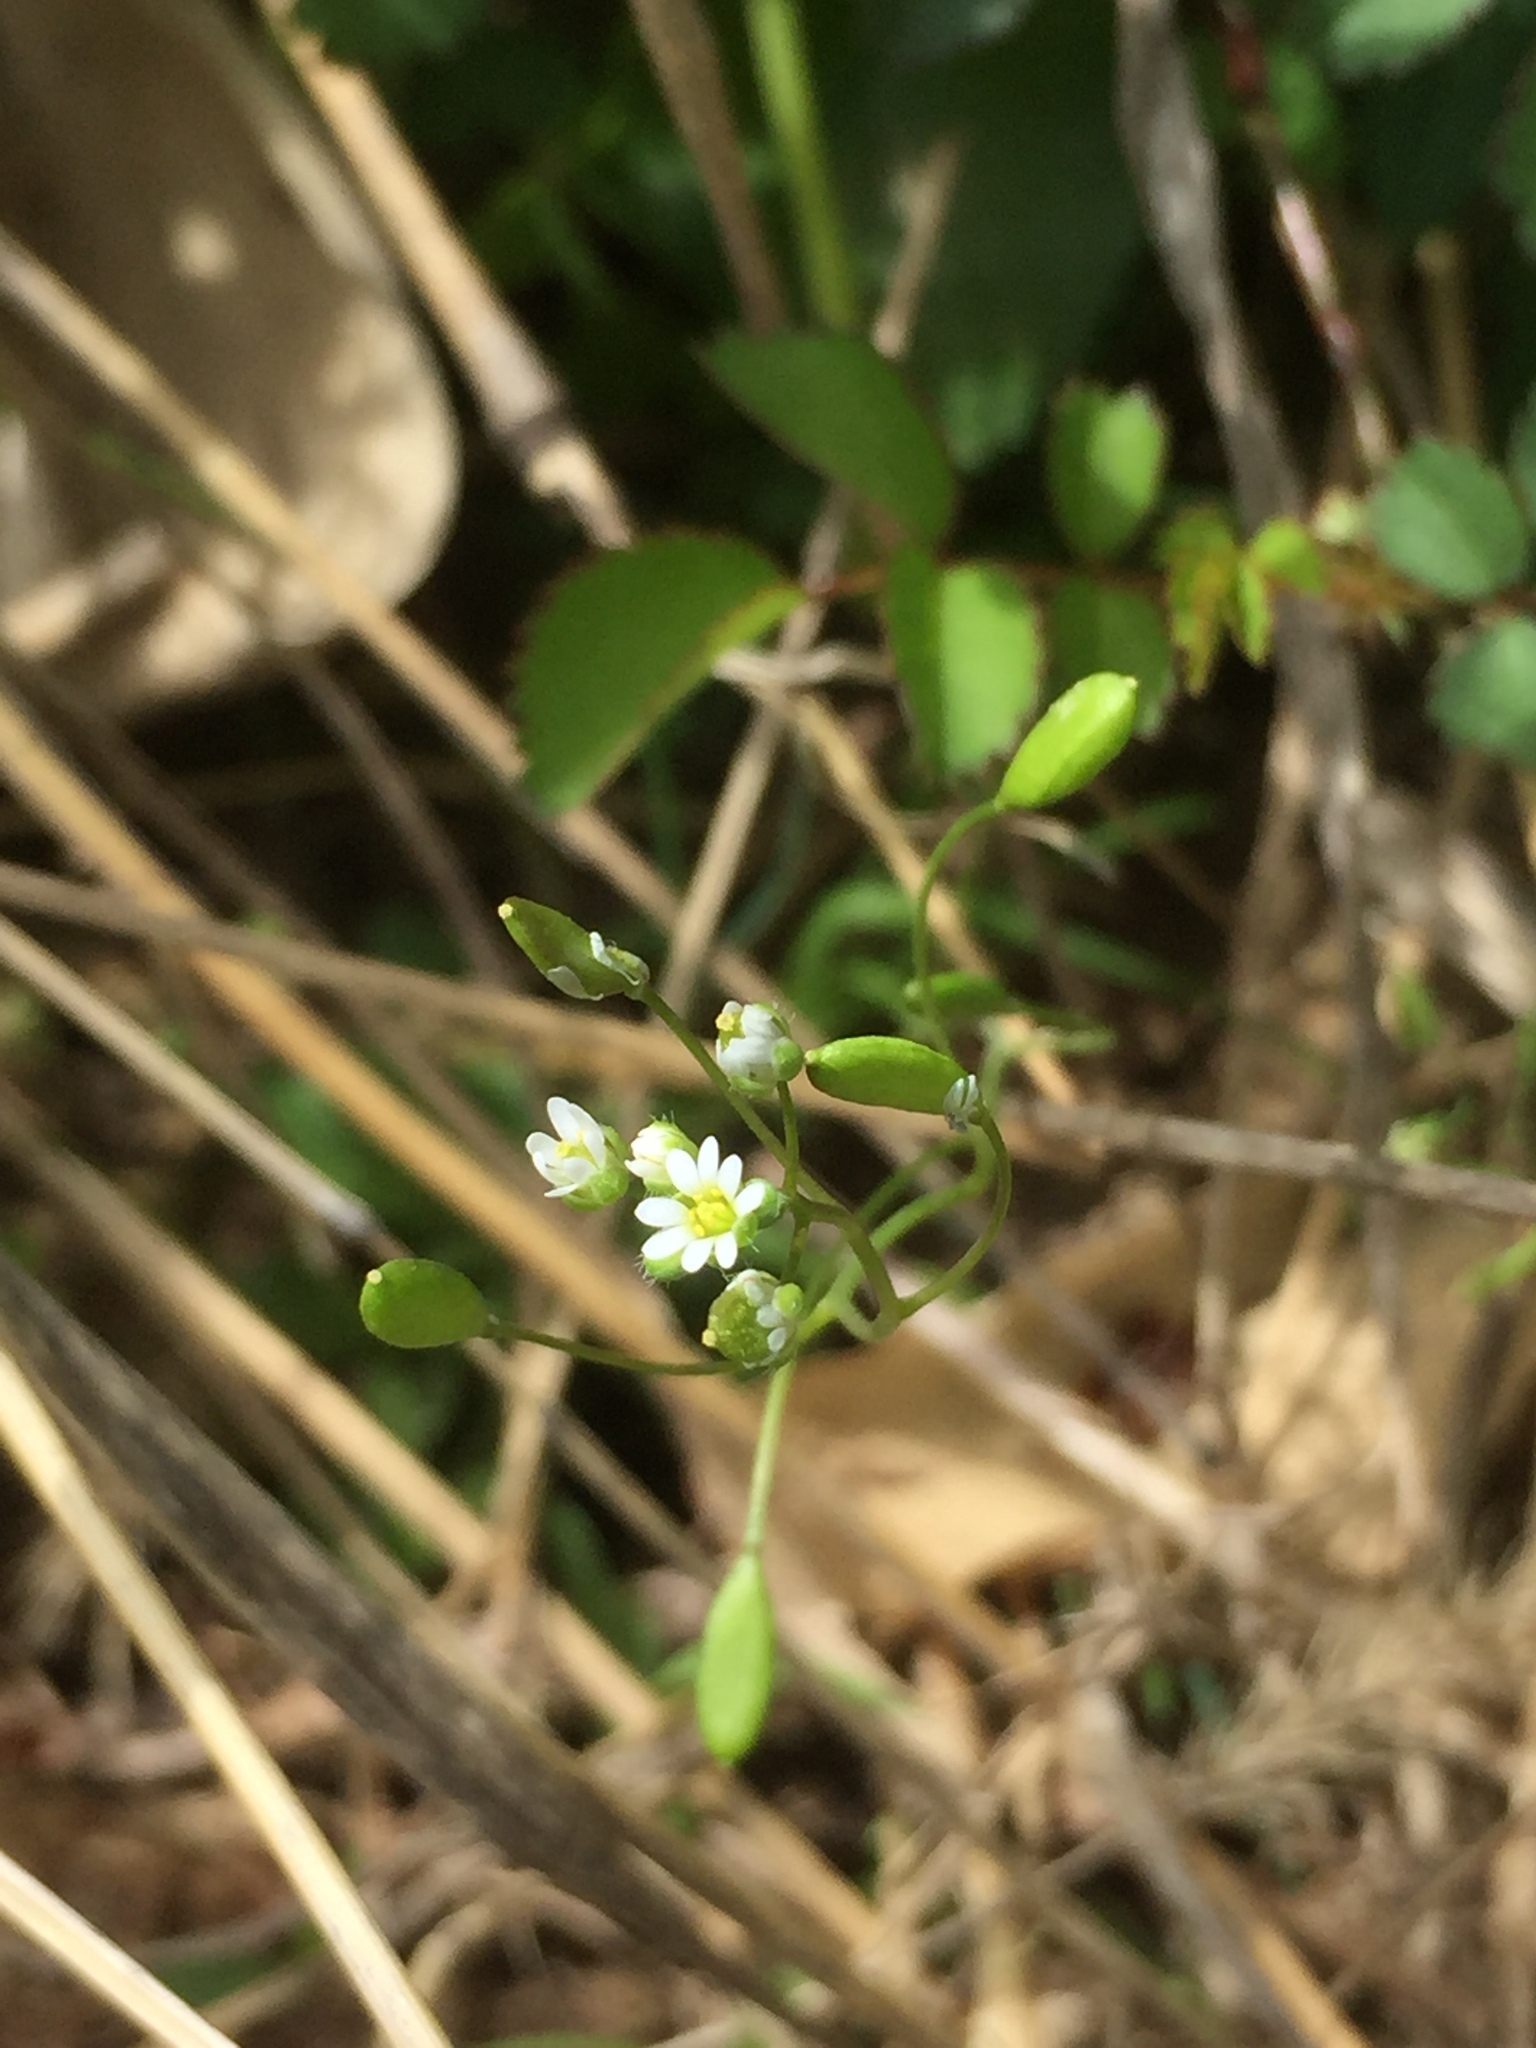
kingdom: Plantae
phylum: Tracheophyta
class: Magnoliopsida
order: Brassicales
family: Brassicaceae
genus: Draba
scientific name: Draba verna
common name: Spring draba
